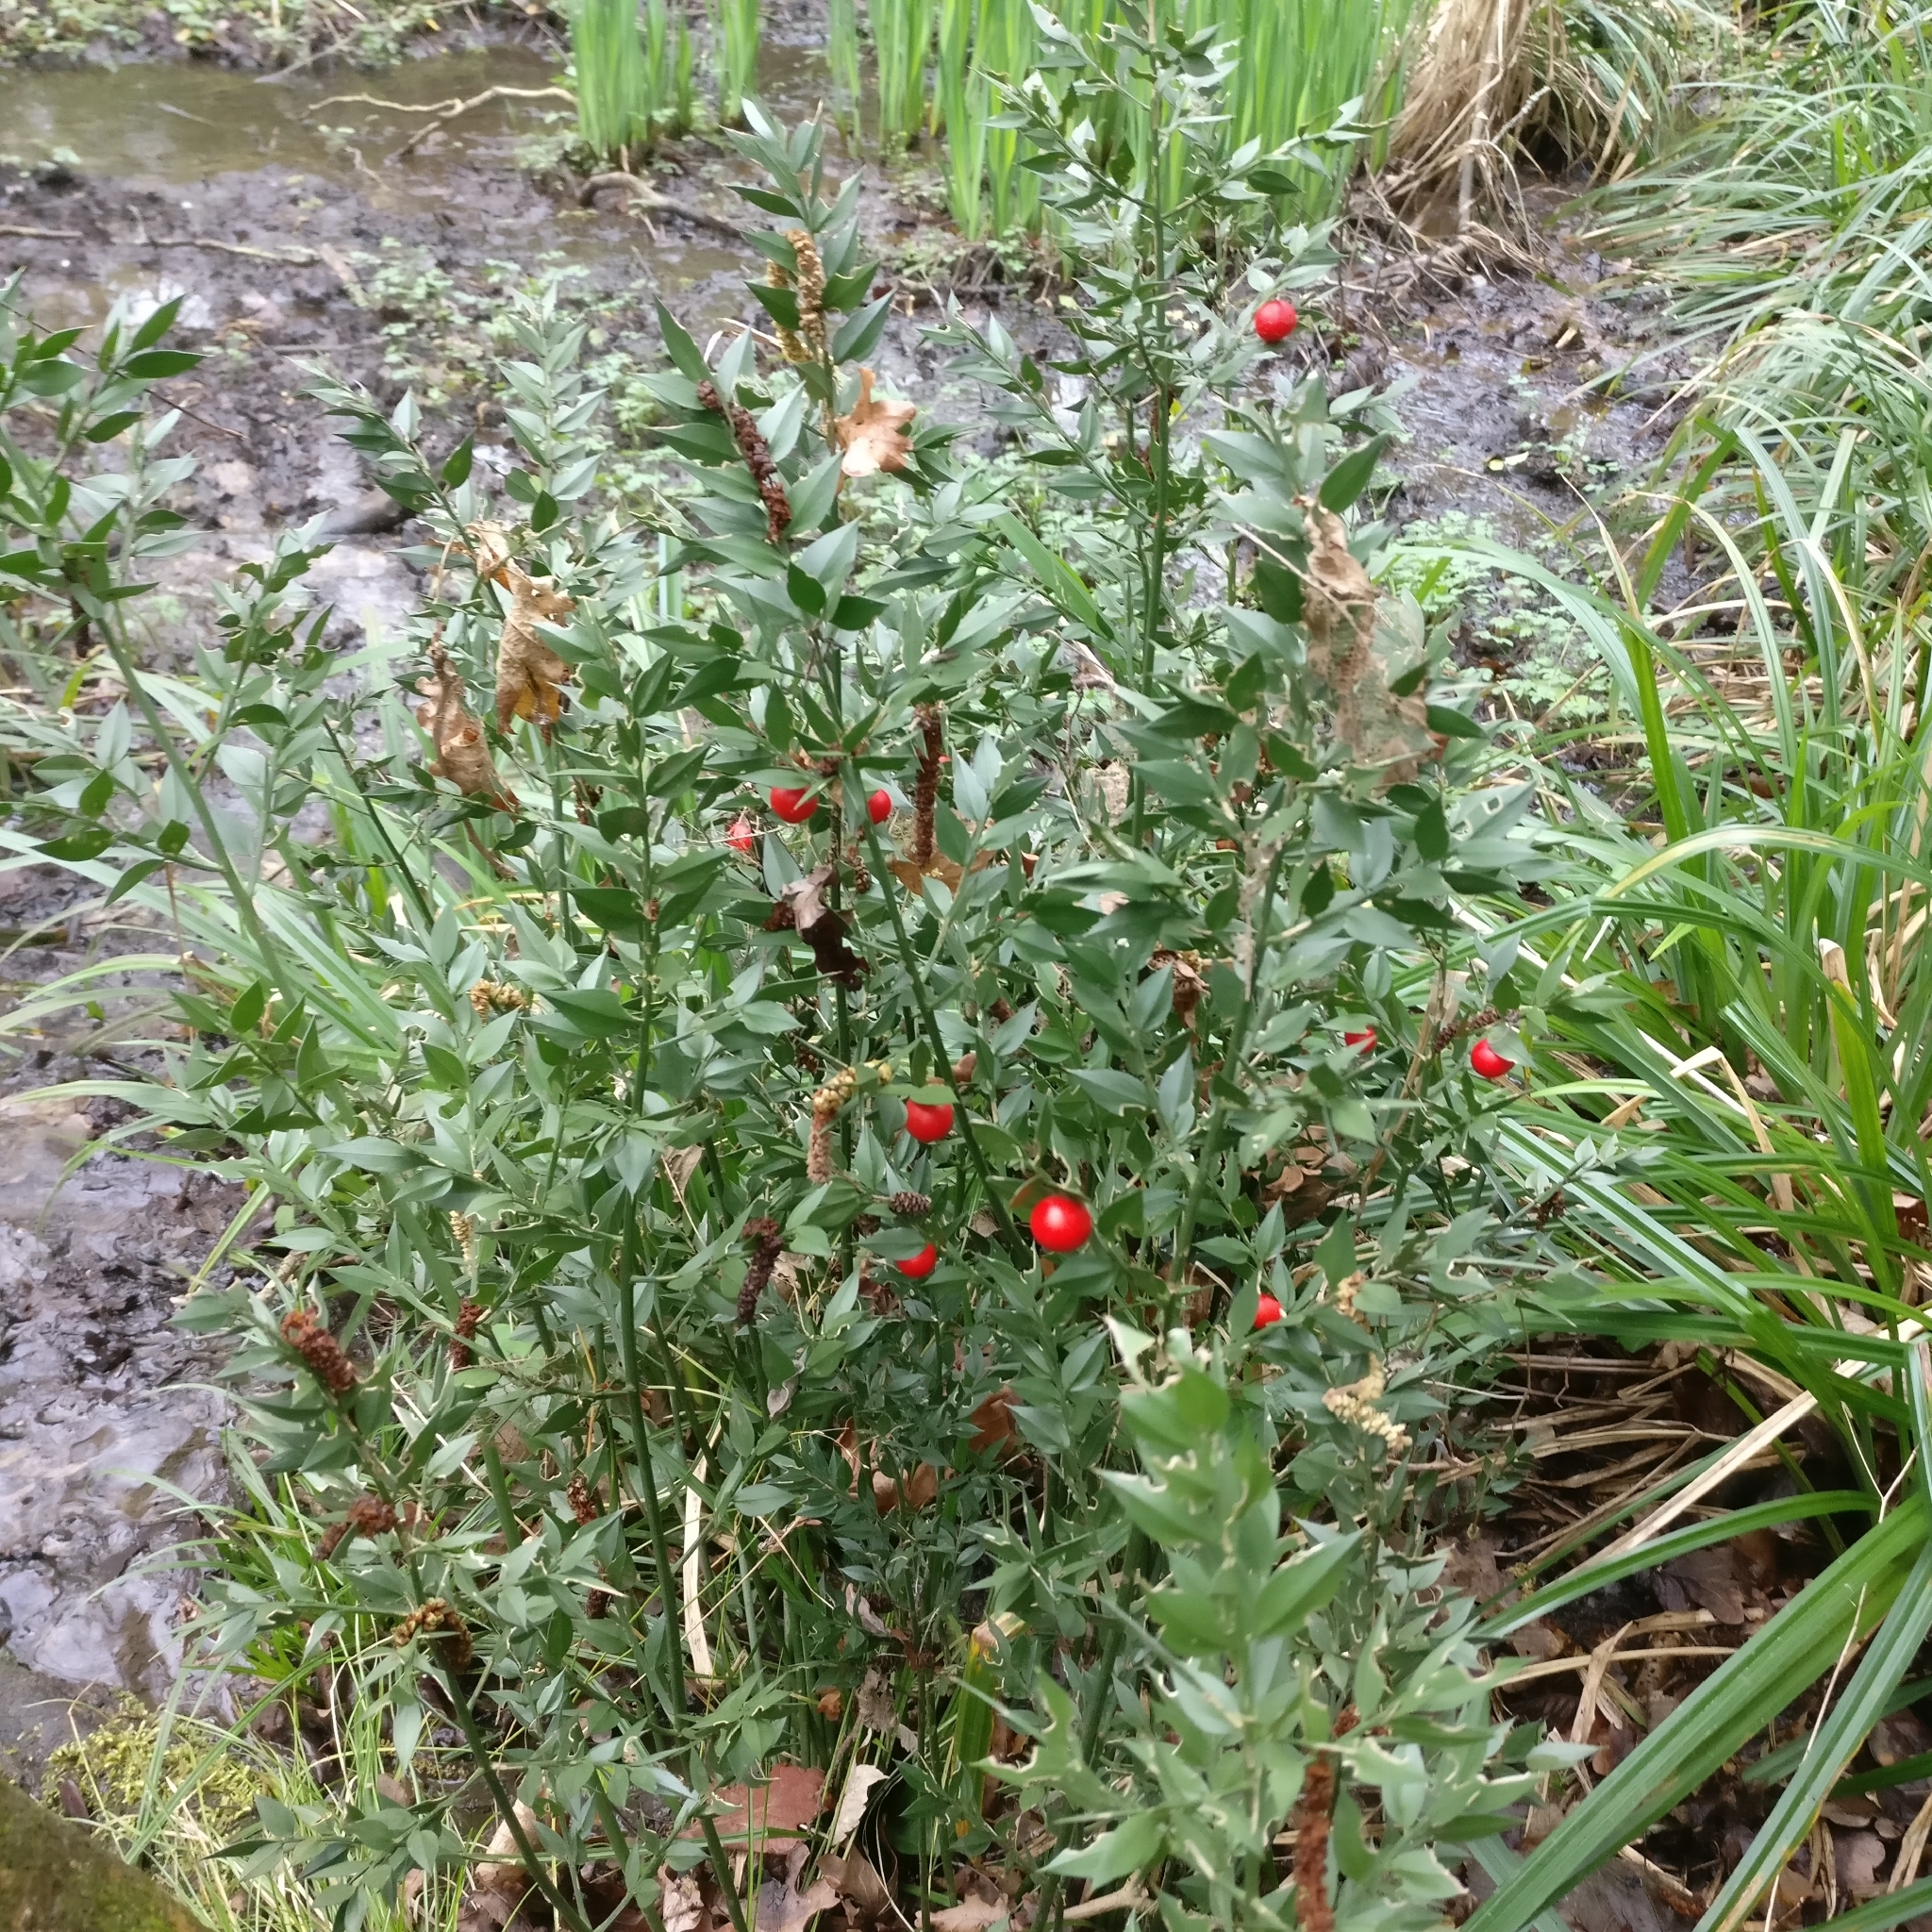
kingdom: Plantae
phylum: Tracheophyta
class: Liliopsida
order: Asparagales
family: Asparagaceae
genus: Ruscus
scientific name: Ruscus aculeatus
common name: Butcher's-broom
